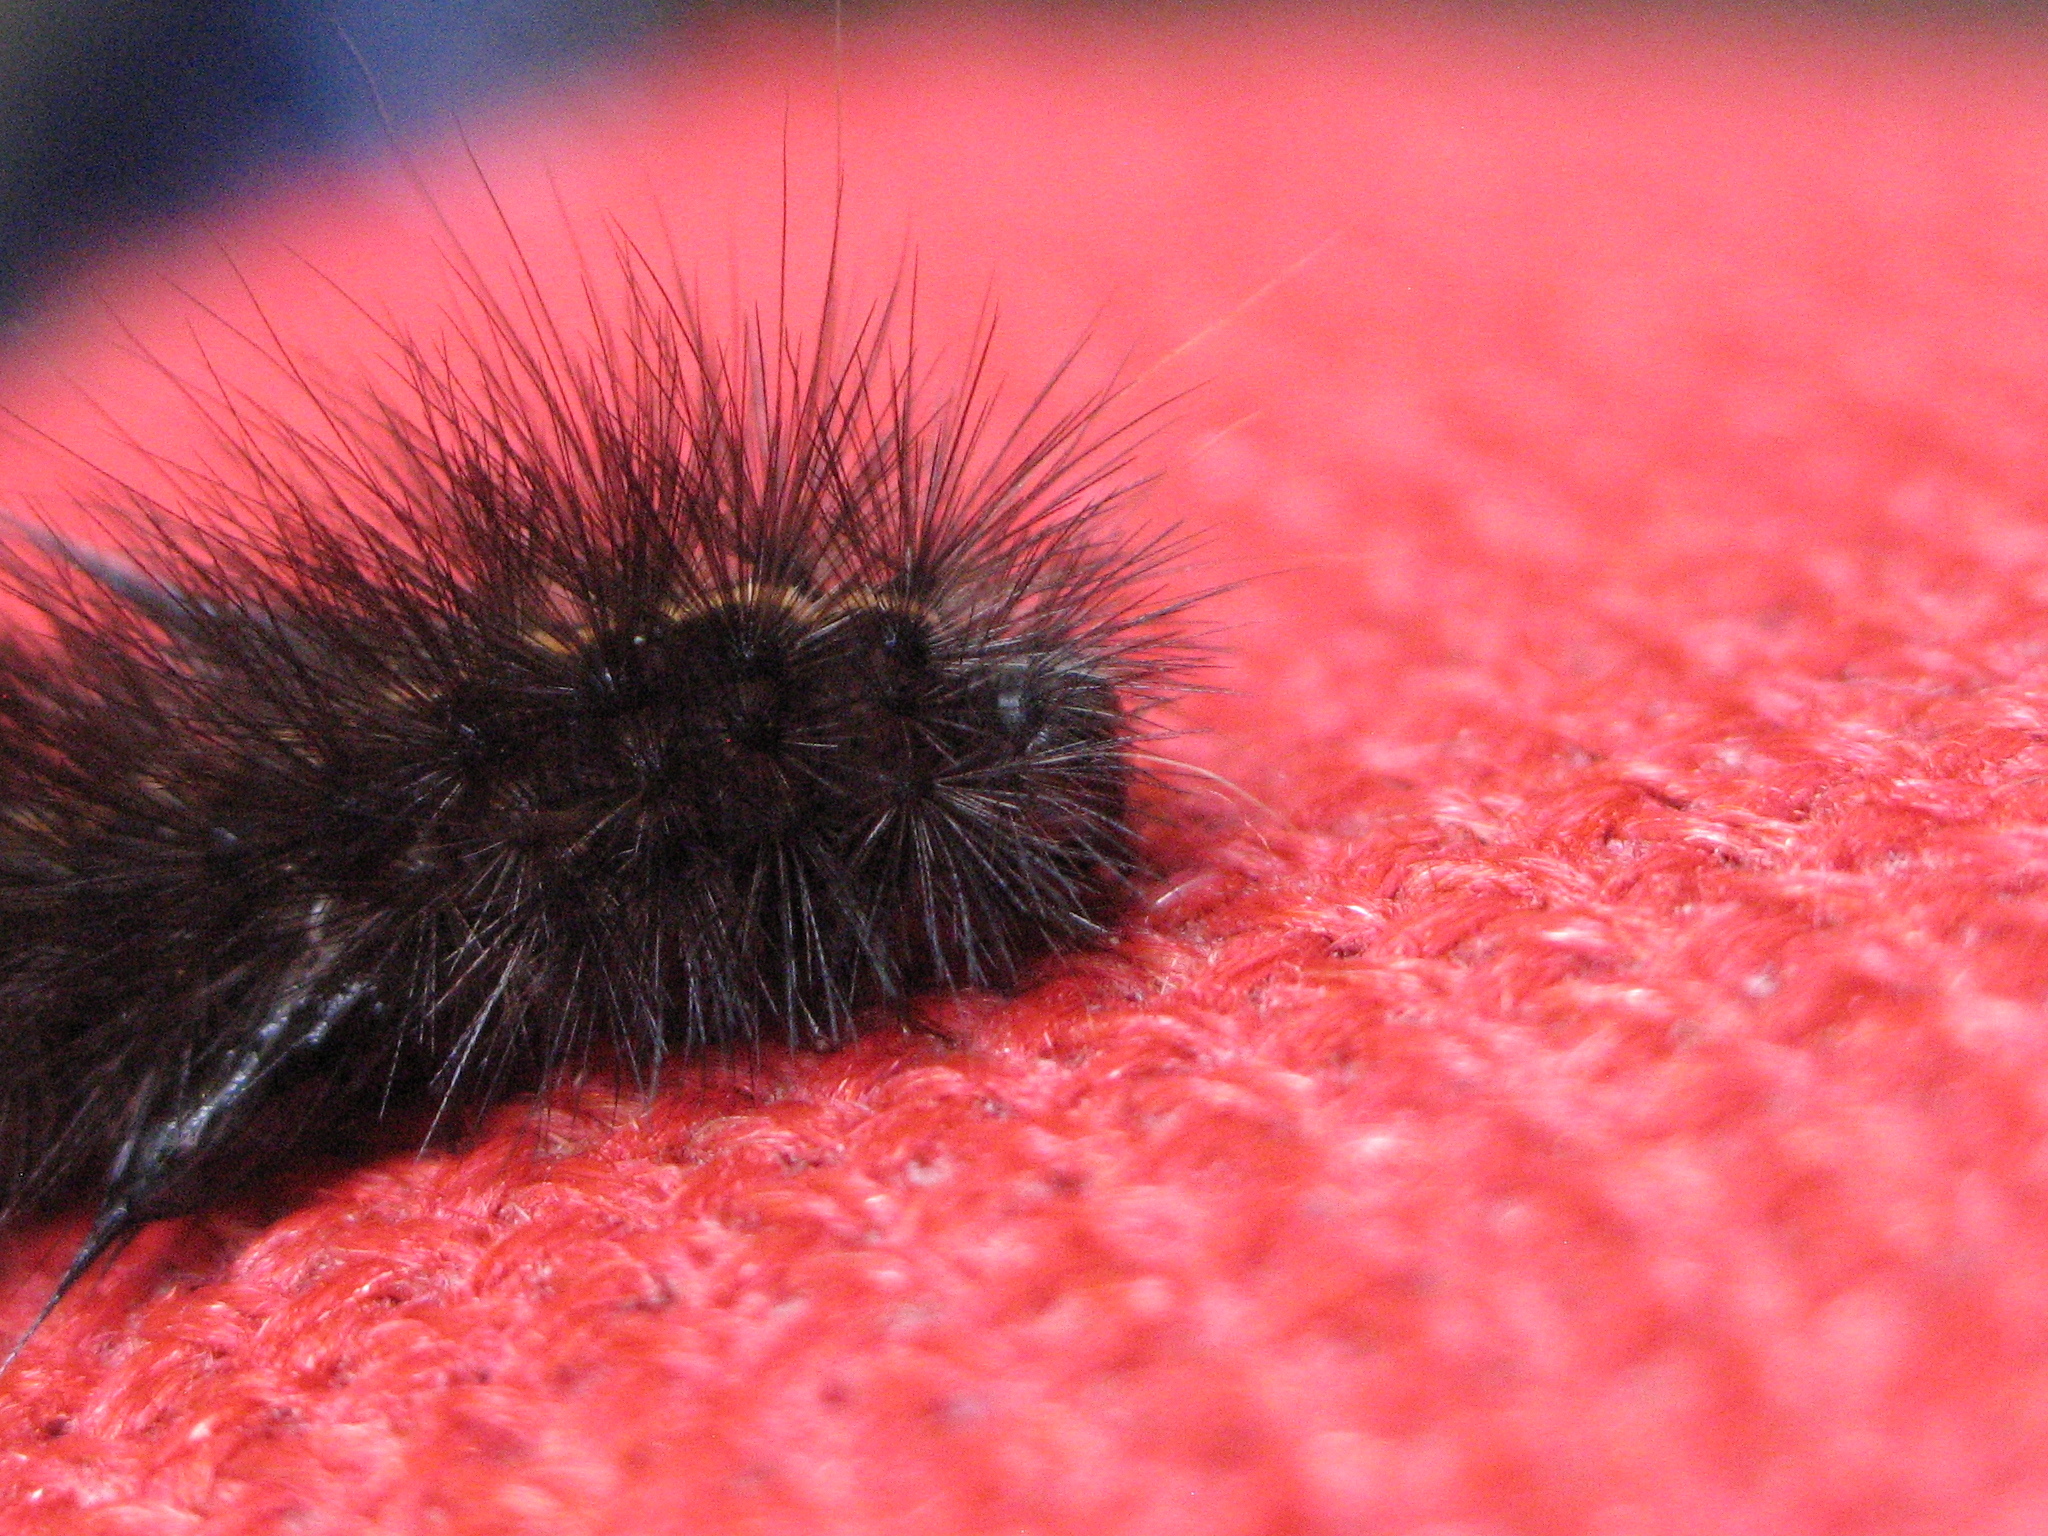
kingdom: Animalia
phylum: Arthropoda
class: Insecta
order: Lepidoptera
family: Erebidae
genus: Spilosoma
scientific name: Spilosoma lubricipeda
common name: White ermine
